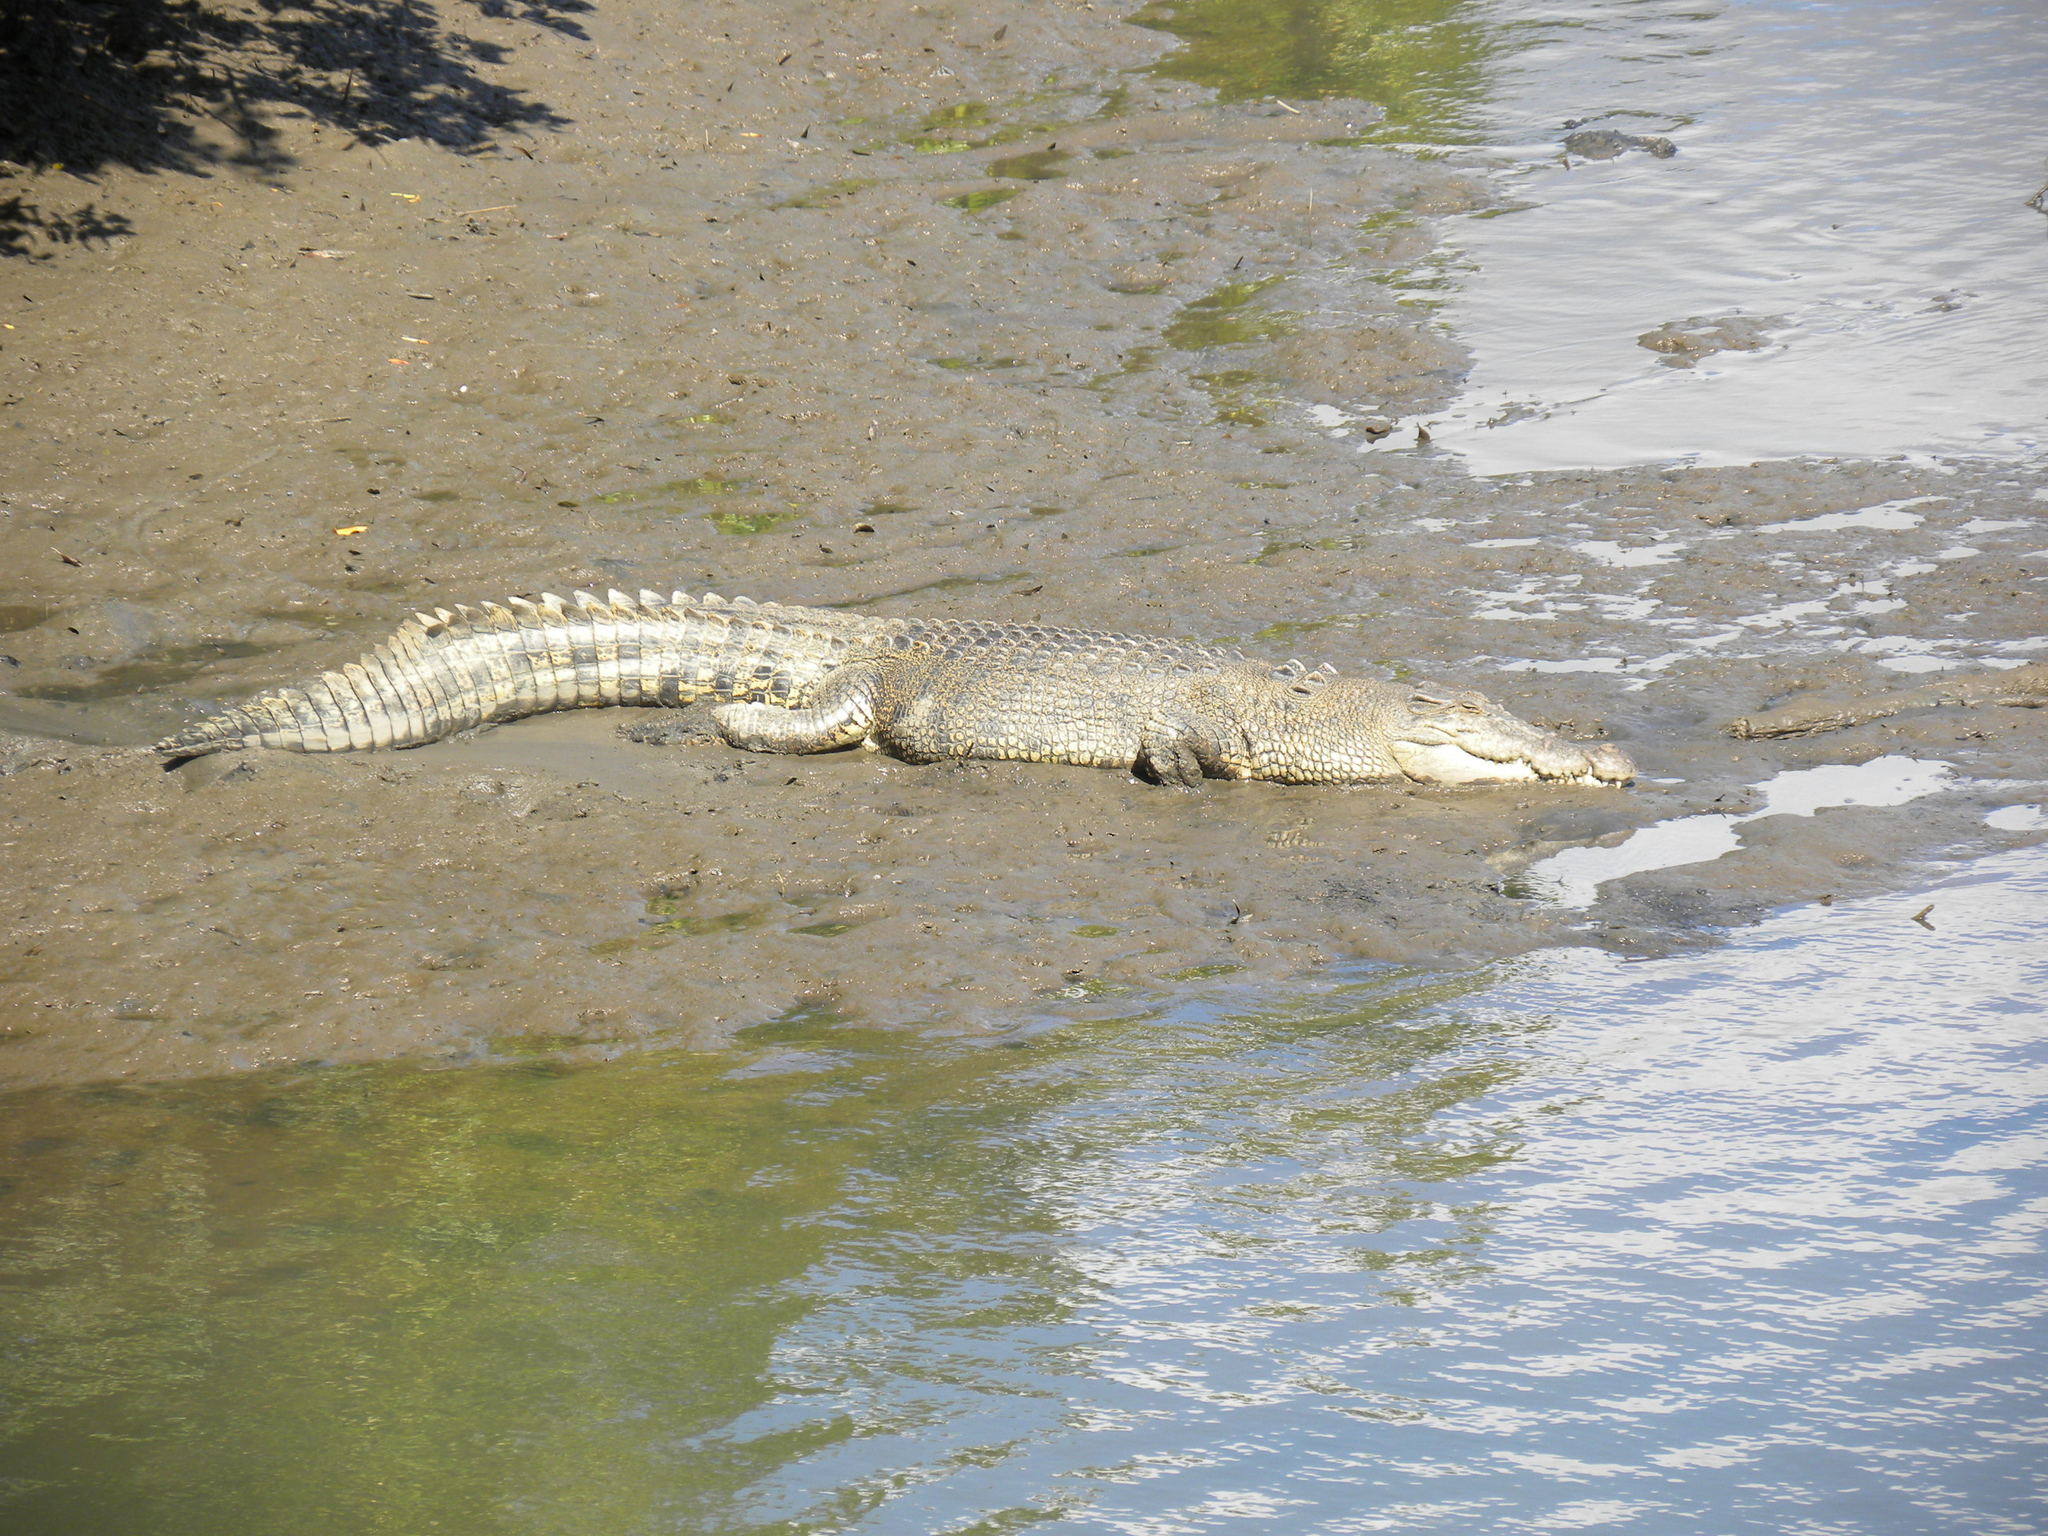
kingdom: Animalia
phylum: Chordata
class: Crocodylia
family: Crocodylidae
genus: Crocodylus
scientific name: Crocodylus porosus
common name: Saltwater crocodile
